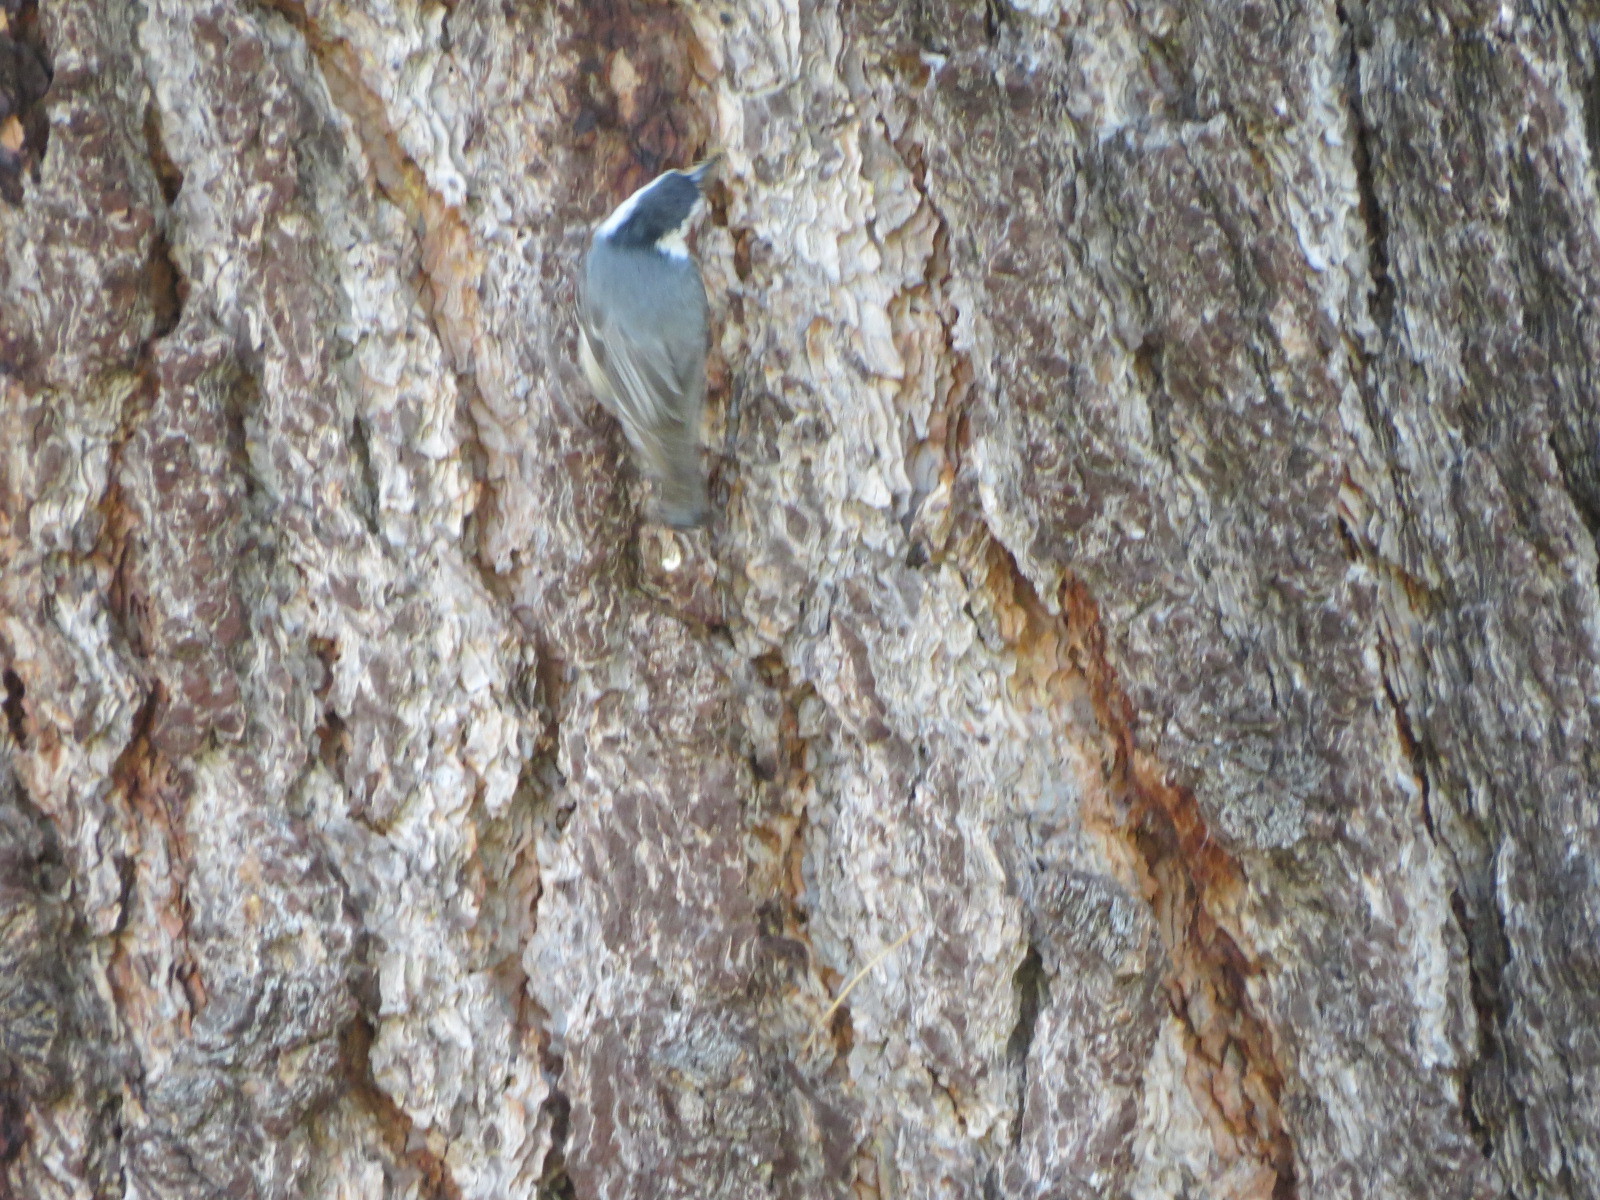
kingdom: Animalia
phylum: Chordata
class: Aves
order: Passeriformes
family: Sittidae
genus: Sitta
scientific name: Sitta carolinensis
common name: White-breasted nuthatch
